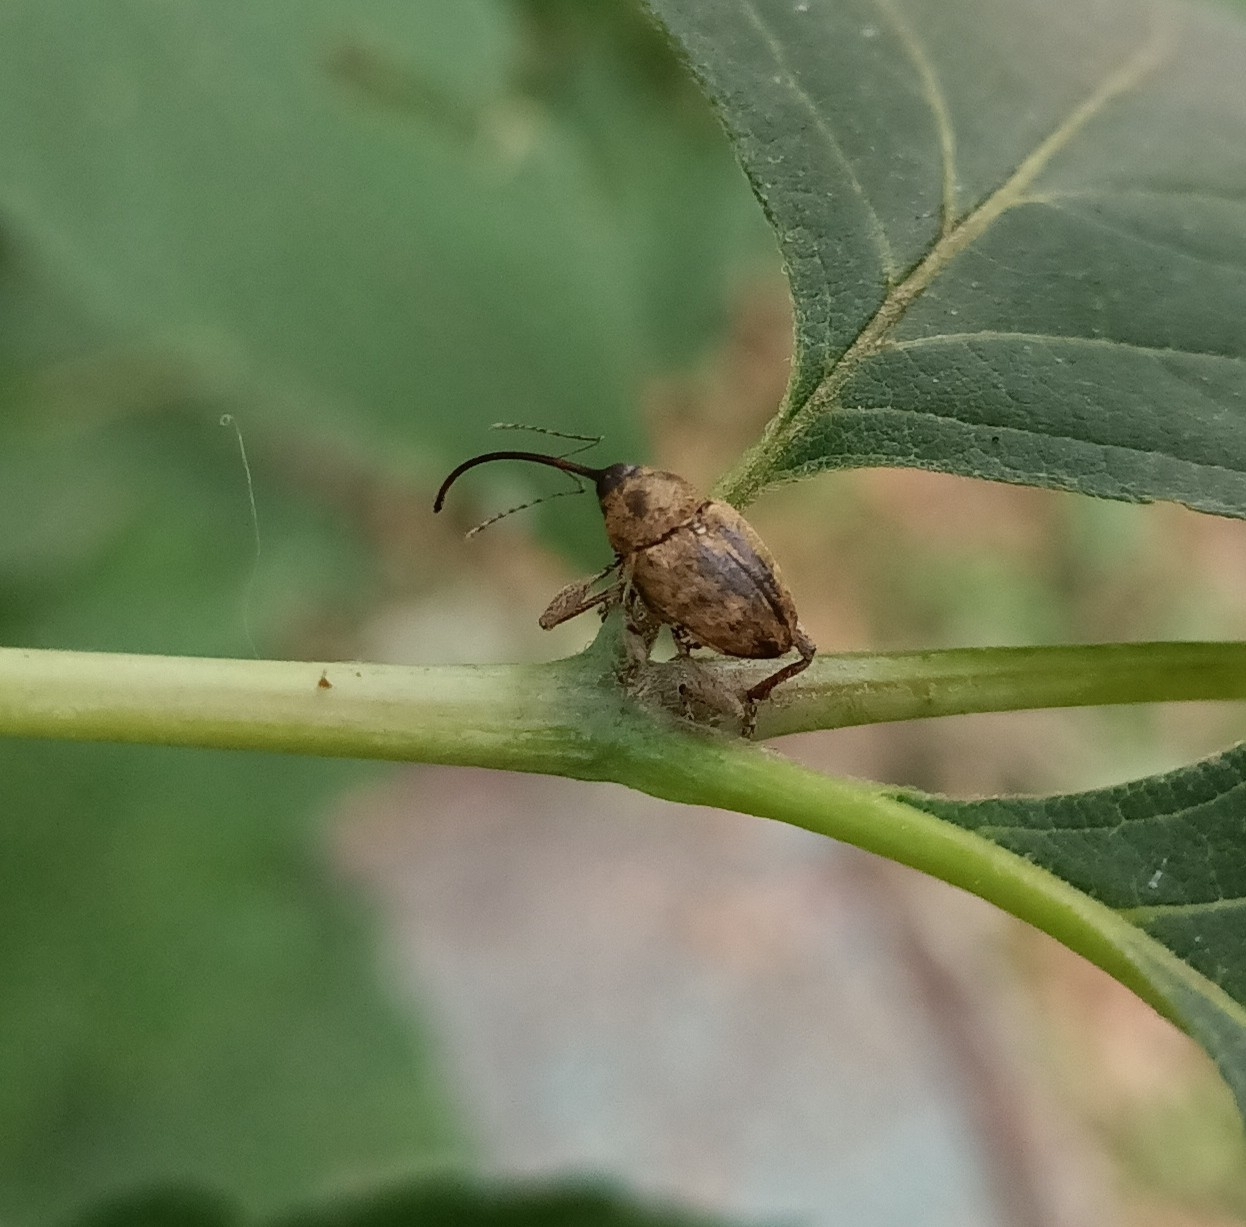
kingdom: Animalia
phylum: Arthropoda
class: Insecta
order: Coleoptera
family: Curculionidae
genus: Curculio
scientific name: Curculio glandium
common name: Acorn weevil
